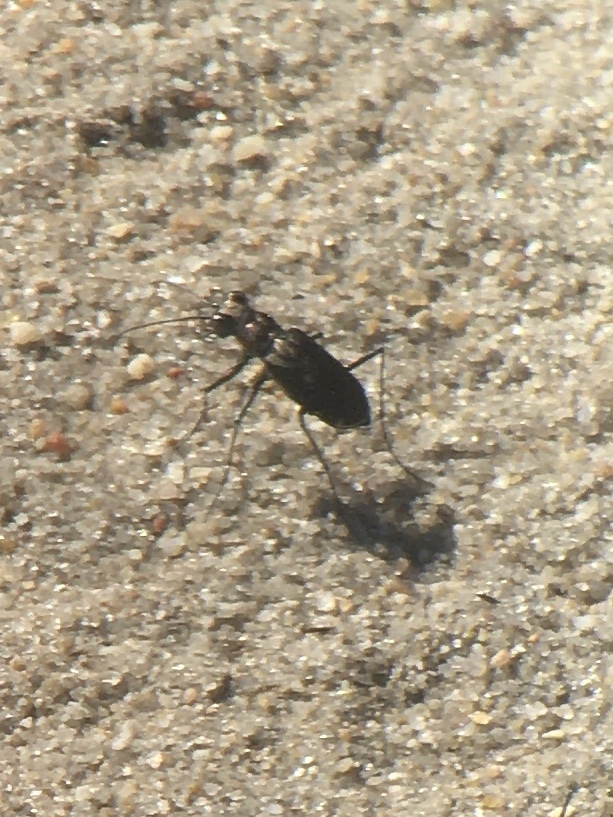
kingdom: Animalia
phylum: Arthropoda
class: Insecta
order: Coleoptera
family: Carabidae
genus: Cicindela
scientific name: Cicindela punctulata
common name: Punctured tiger beetle
